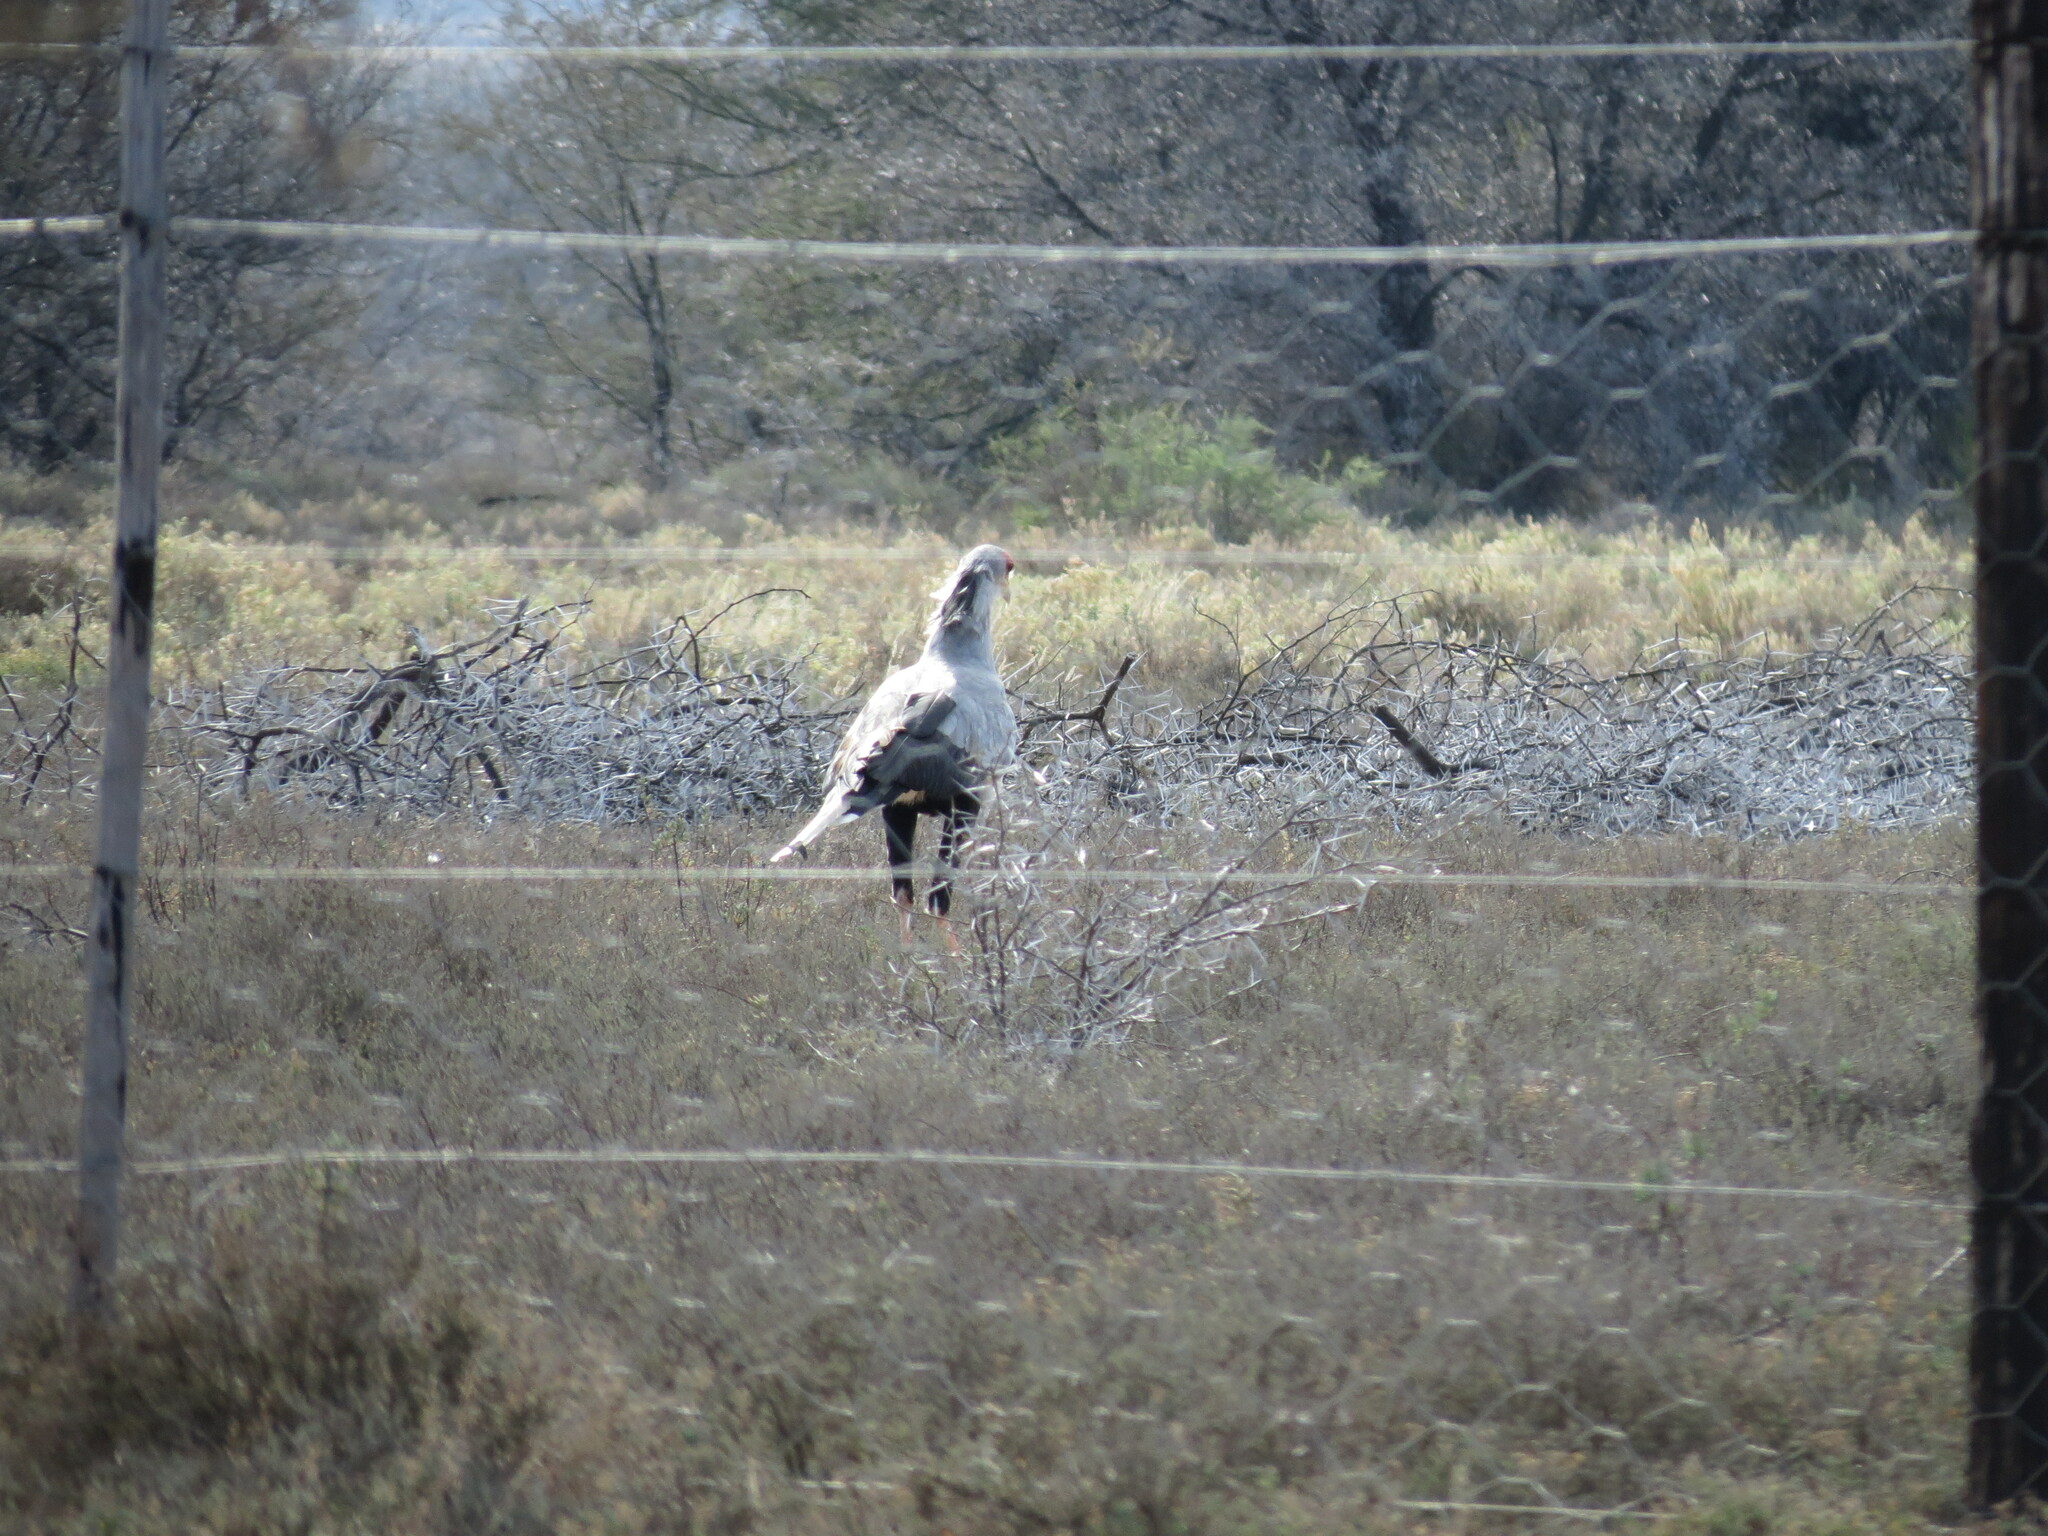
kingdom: Animalia
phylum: Chordata
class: Aves
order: Accipitriformes
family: Sagittariidae
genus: Sagittarius
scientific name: Sagittarius serpentarius
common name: Secretarybird
